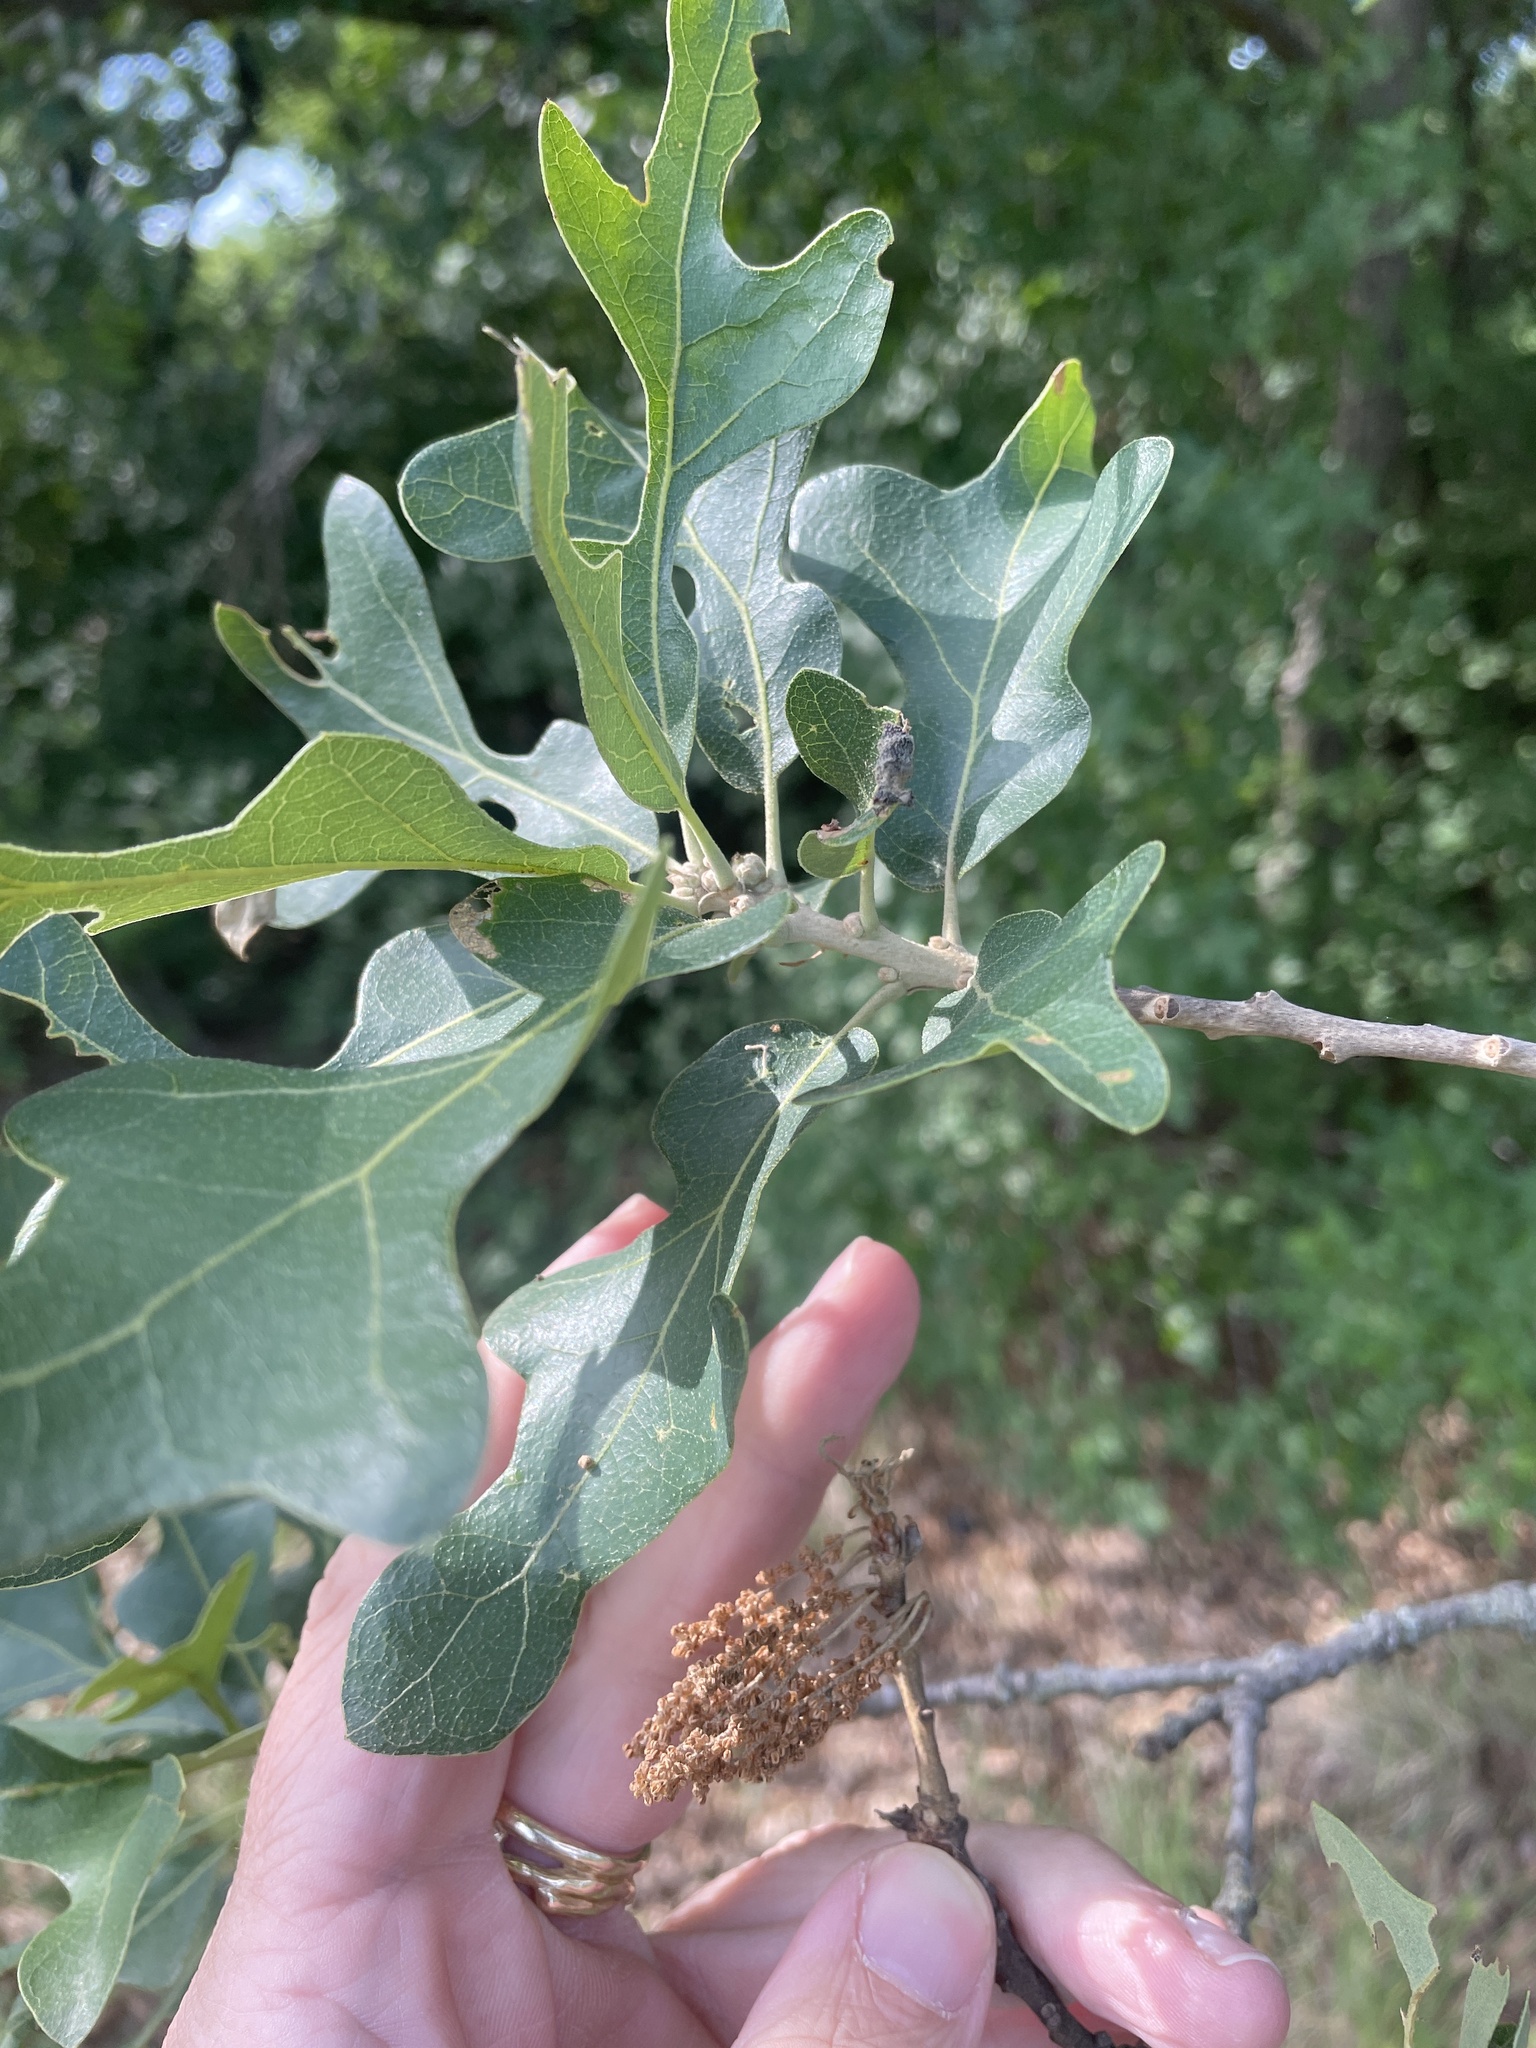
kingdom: Plantae
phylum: Tracheophyta
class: Magnoliopsida
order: Fagales
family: Fagaceae
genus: Quercus
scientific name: Quercus stellata
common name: Post oak
